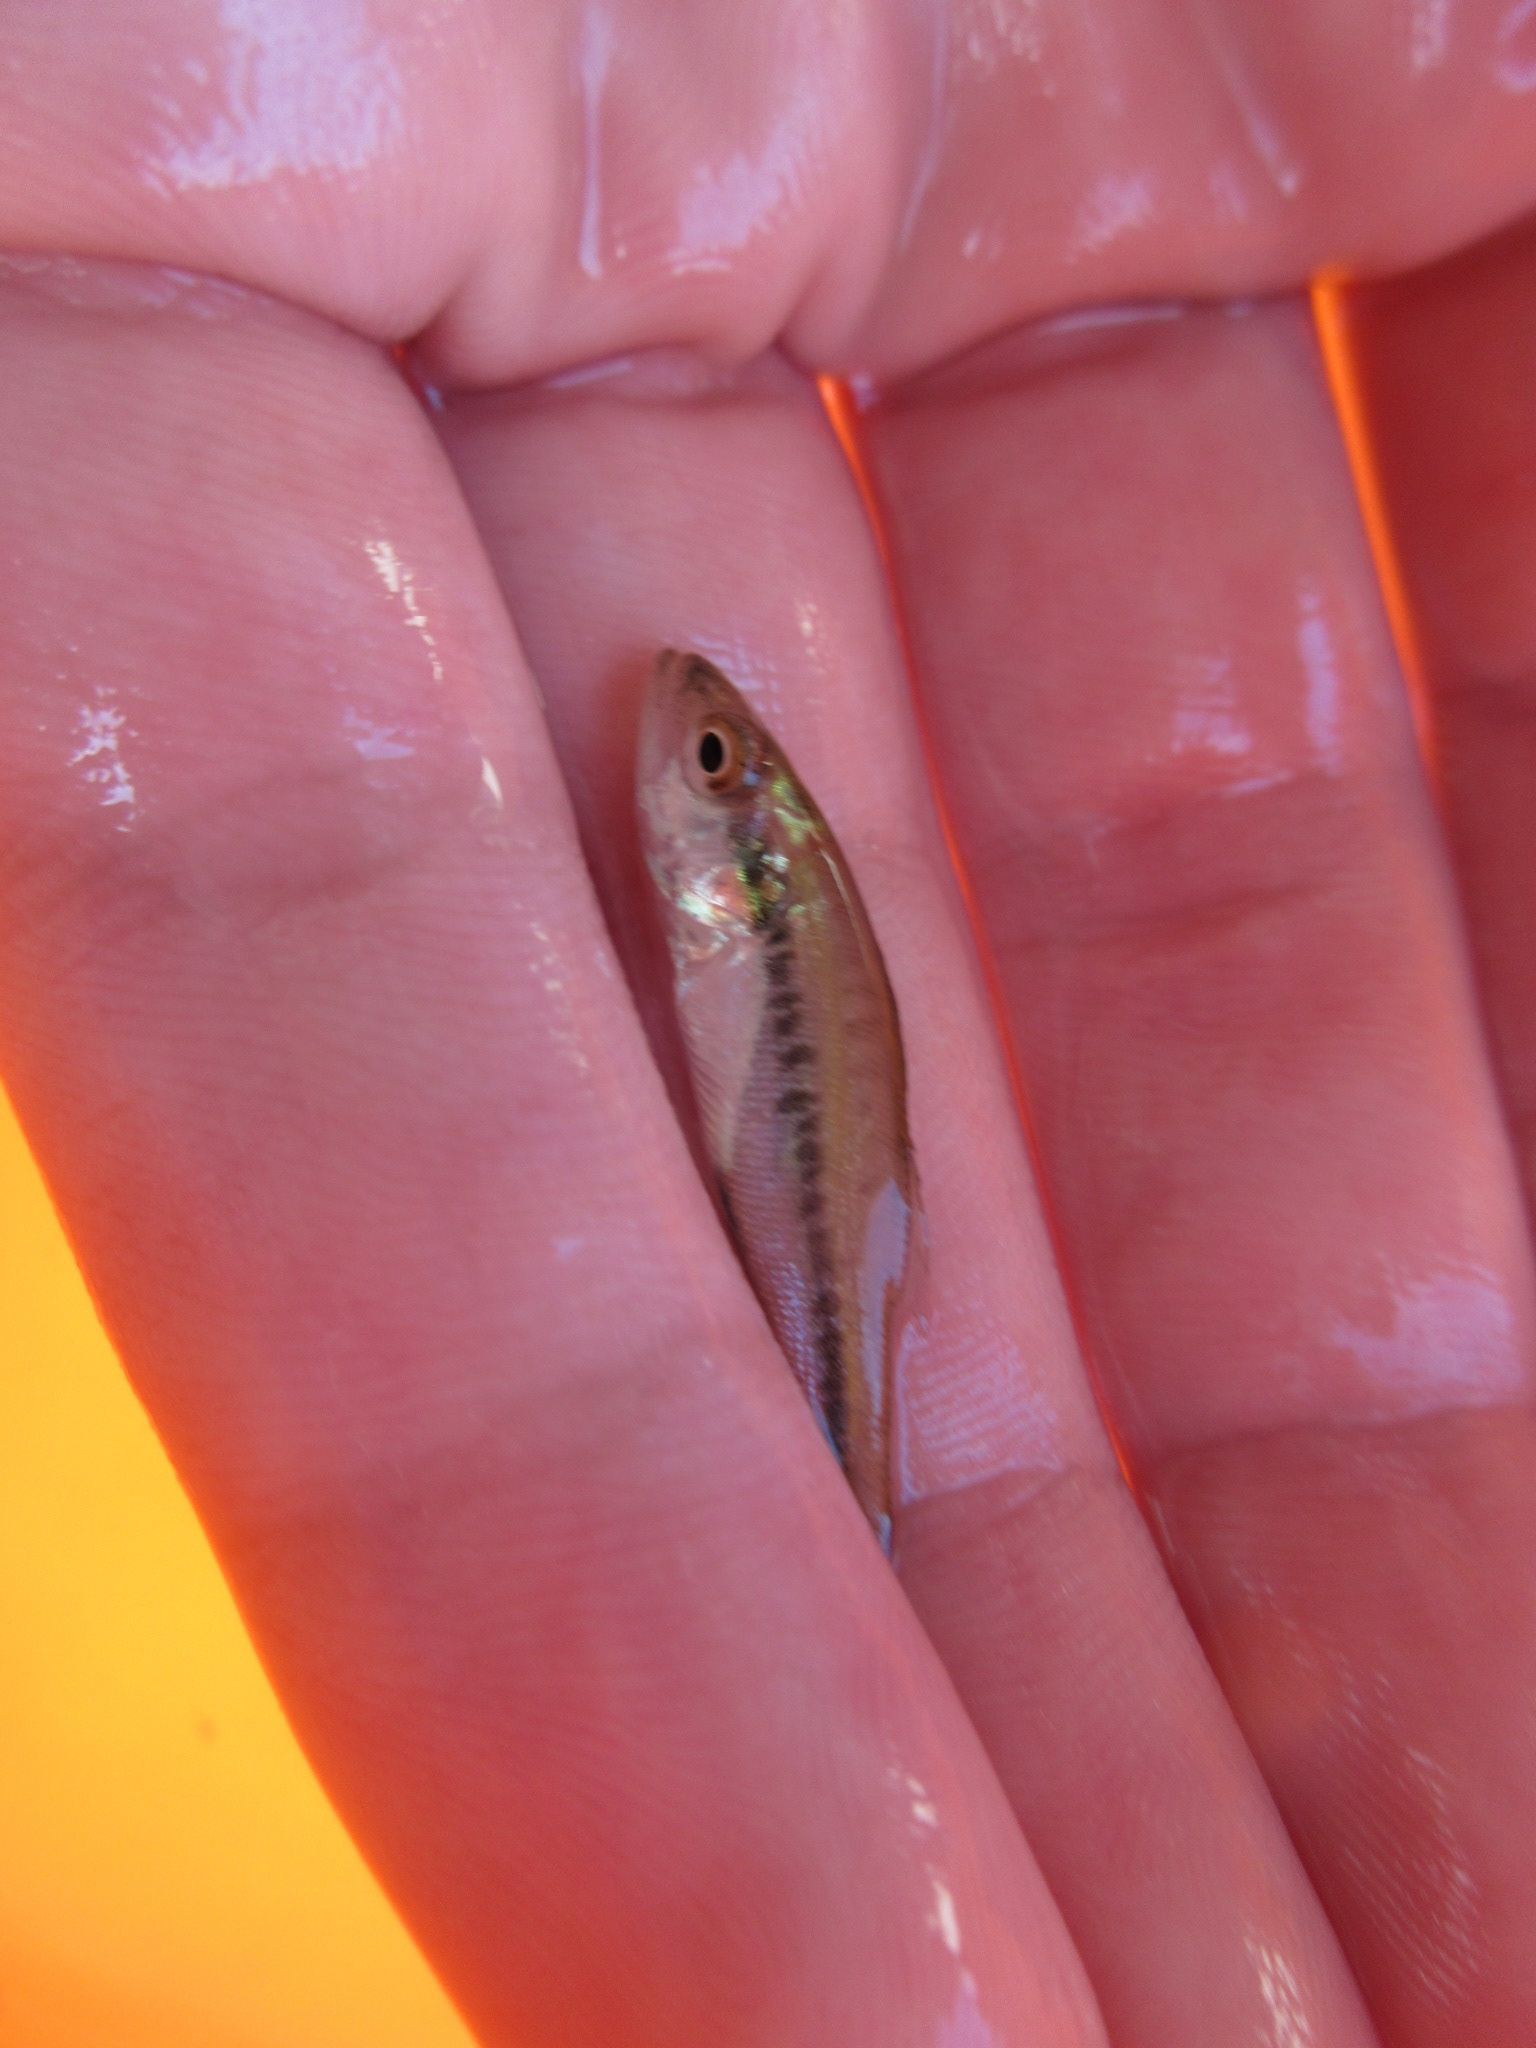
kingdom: Animalia
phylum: Chordata
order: Perciformes
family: Centrarchidae
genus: Micropterus
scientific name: Micropterus
